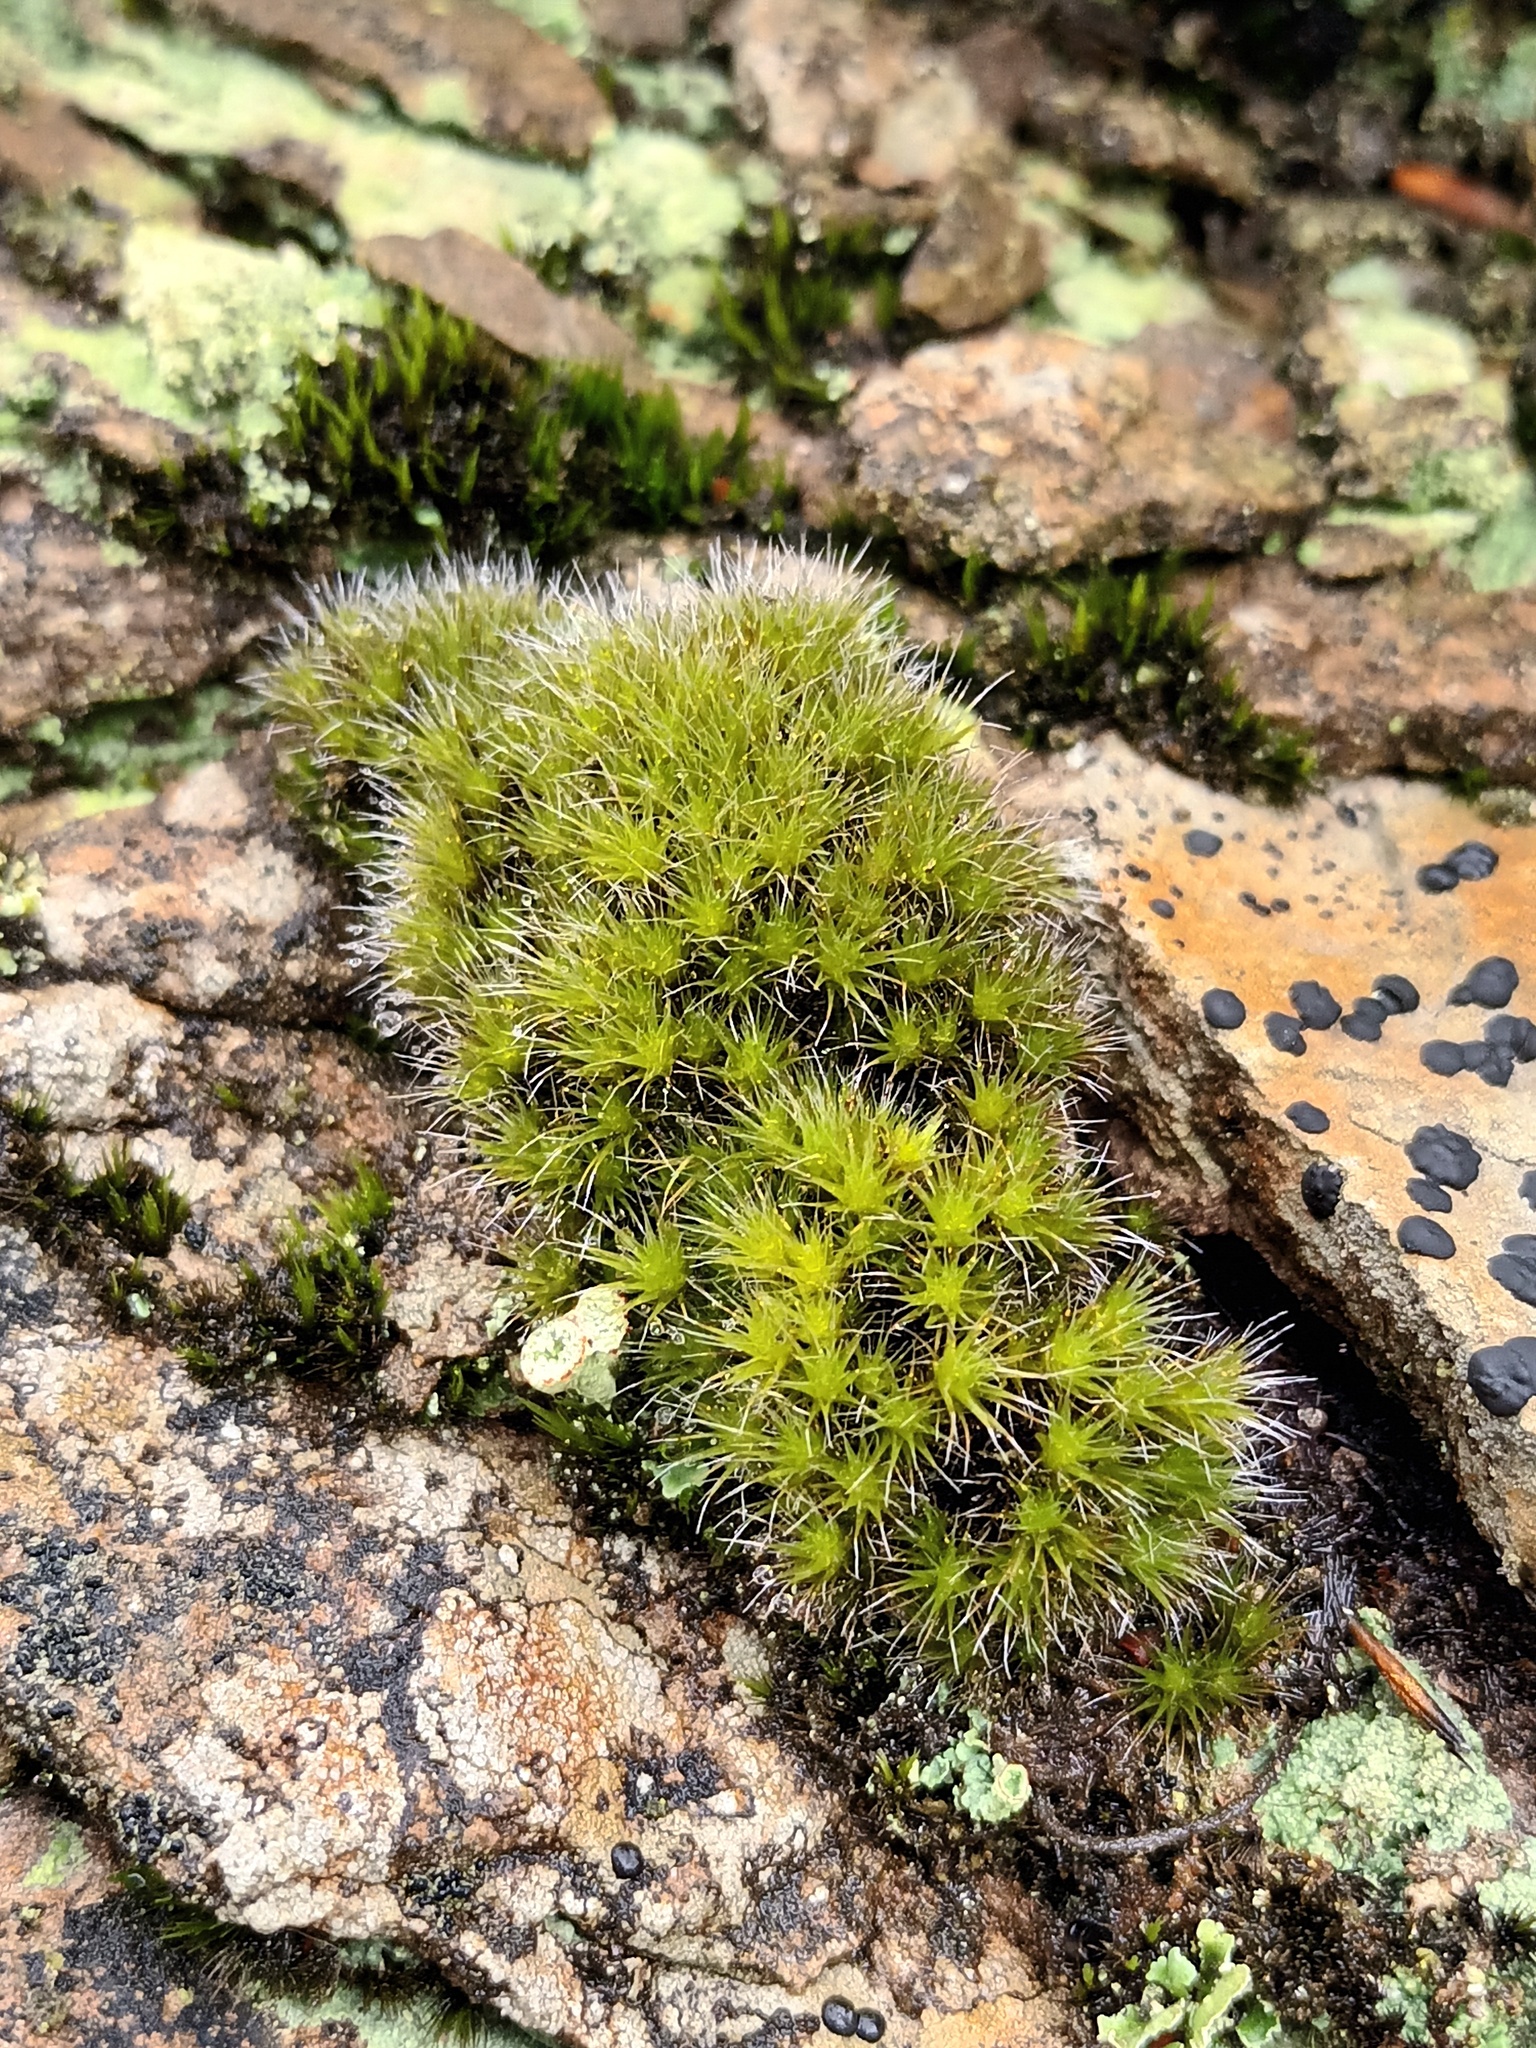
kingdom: Plantae
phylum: Bryophyta
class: Bryopsida
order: Dicranales
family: Leucobryaceae
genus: Campylopus
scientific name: Campylopus introflexus
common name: Heath star moss
